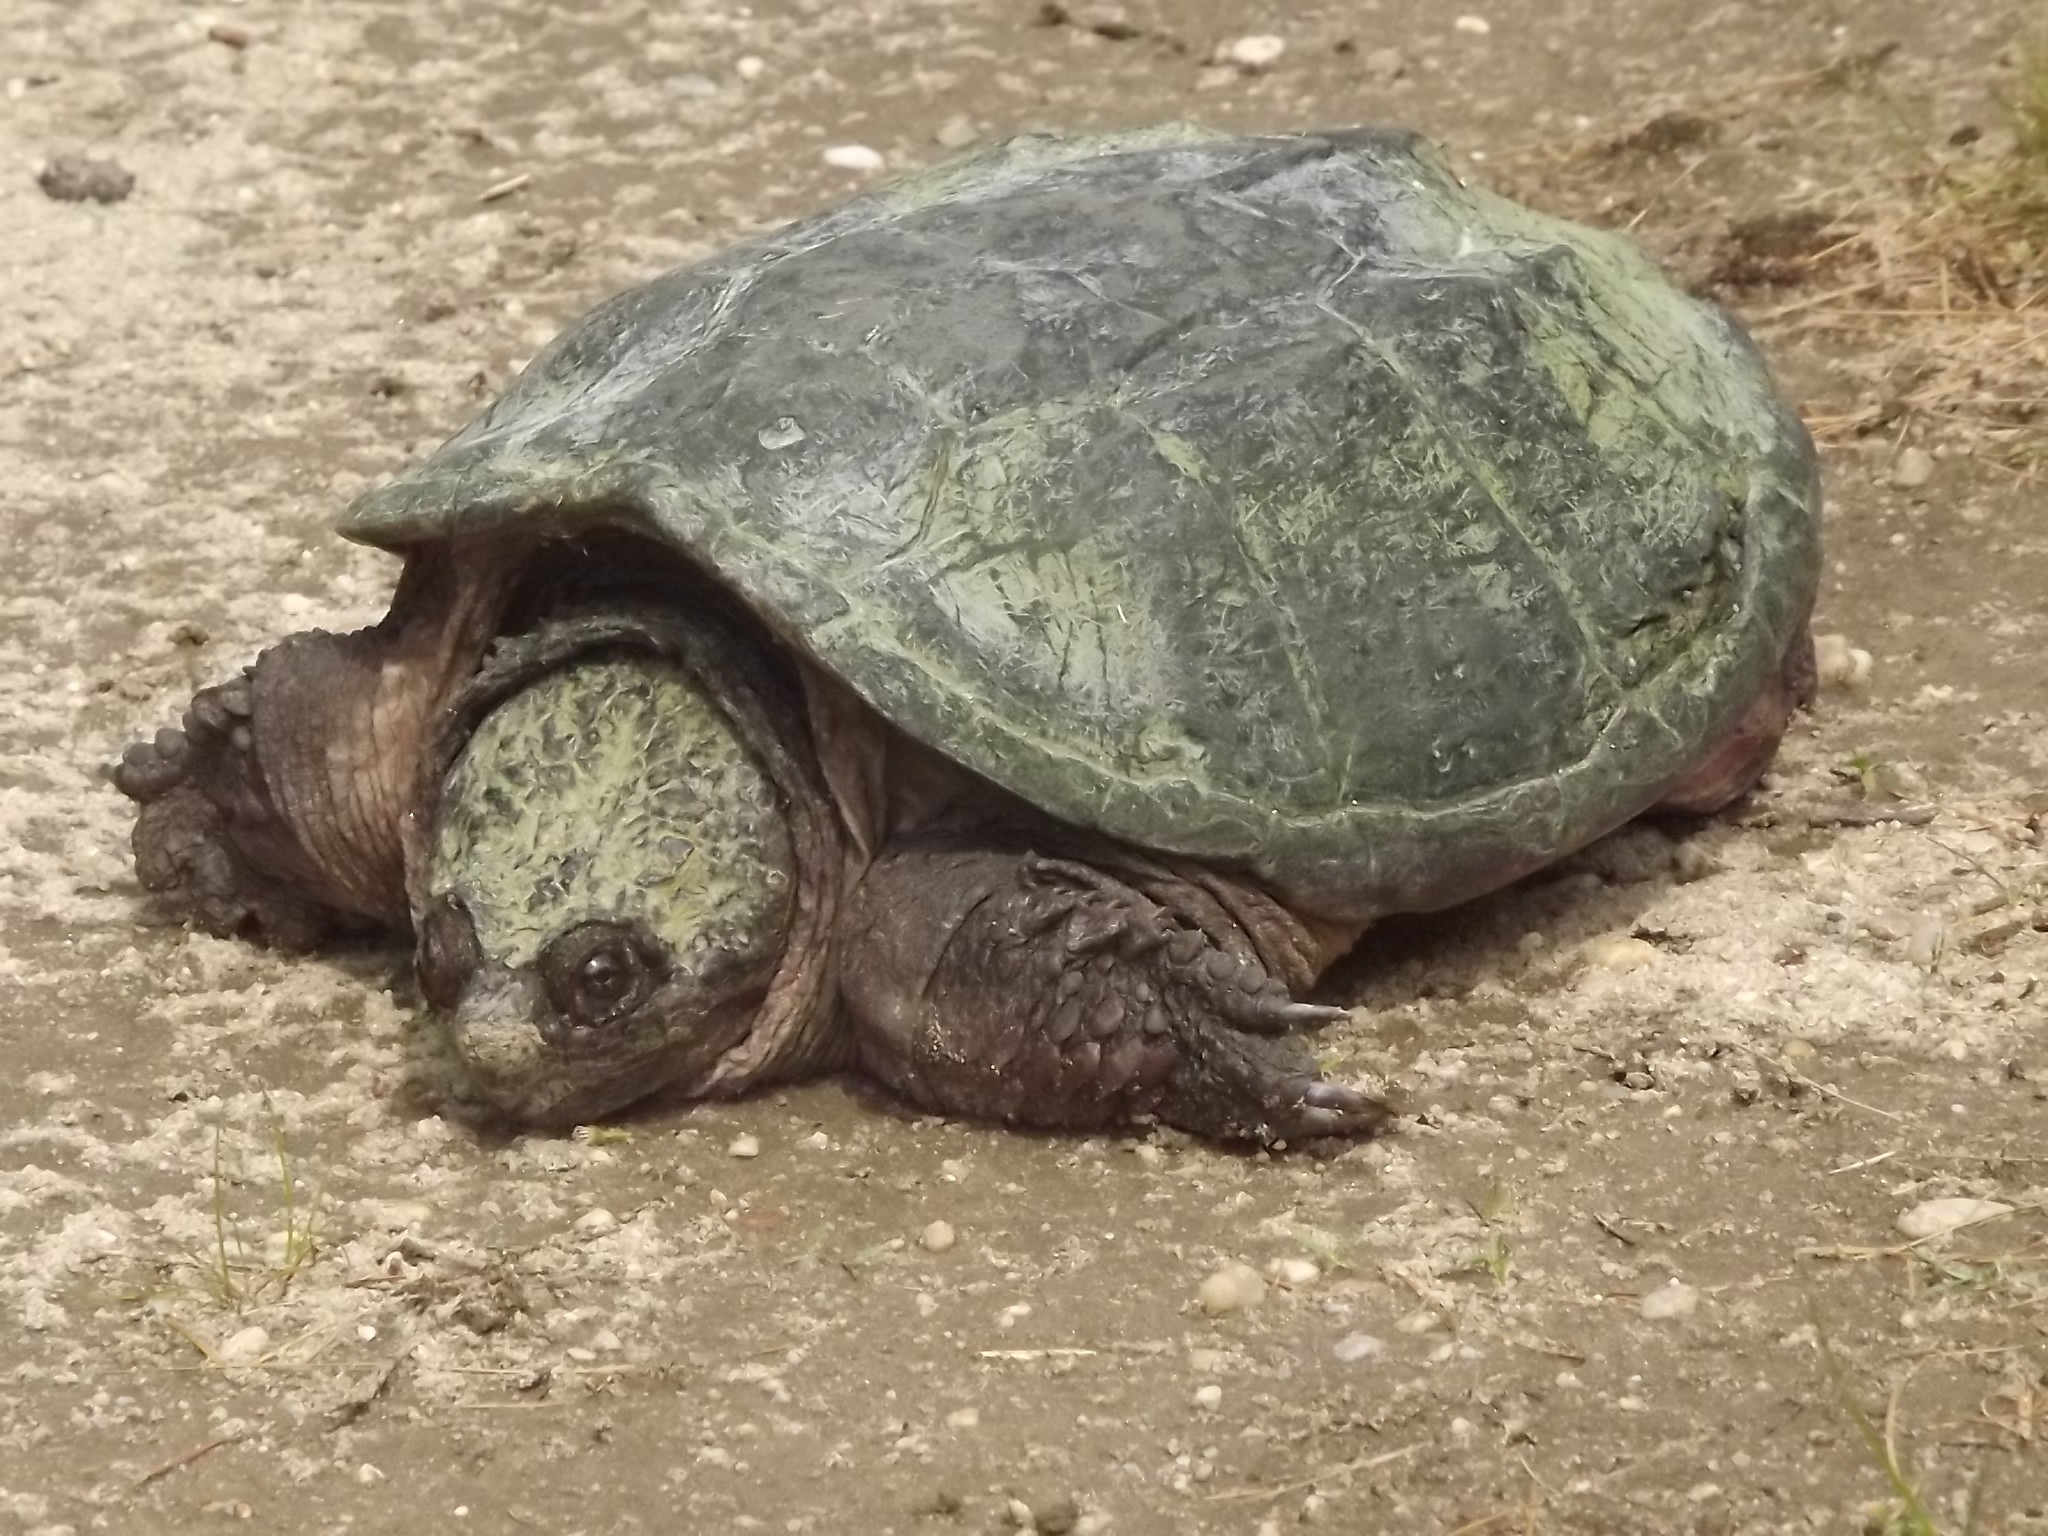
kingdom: Animalia
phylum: Chordata
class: Testudines
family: Chelydridae
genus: Chelydra
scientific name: Chelydra serpentina
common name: Common snapping turtle
